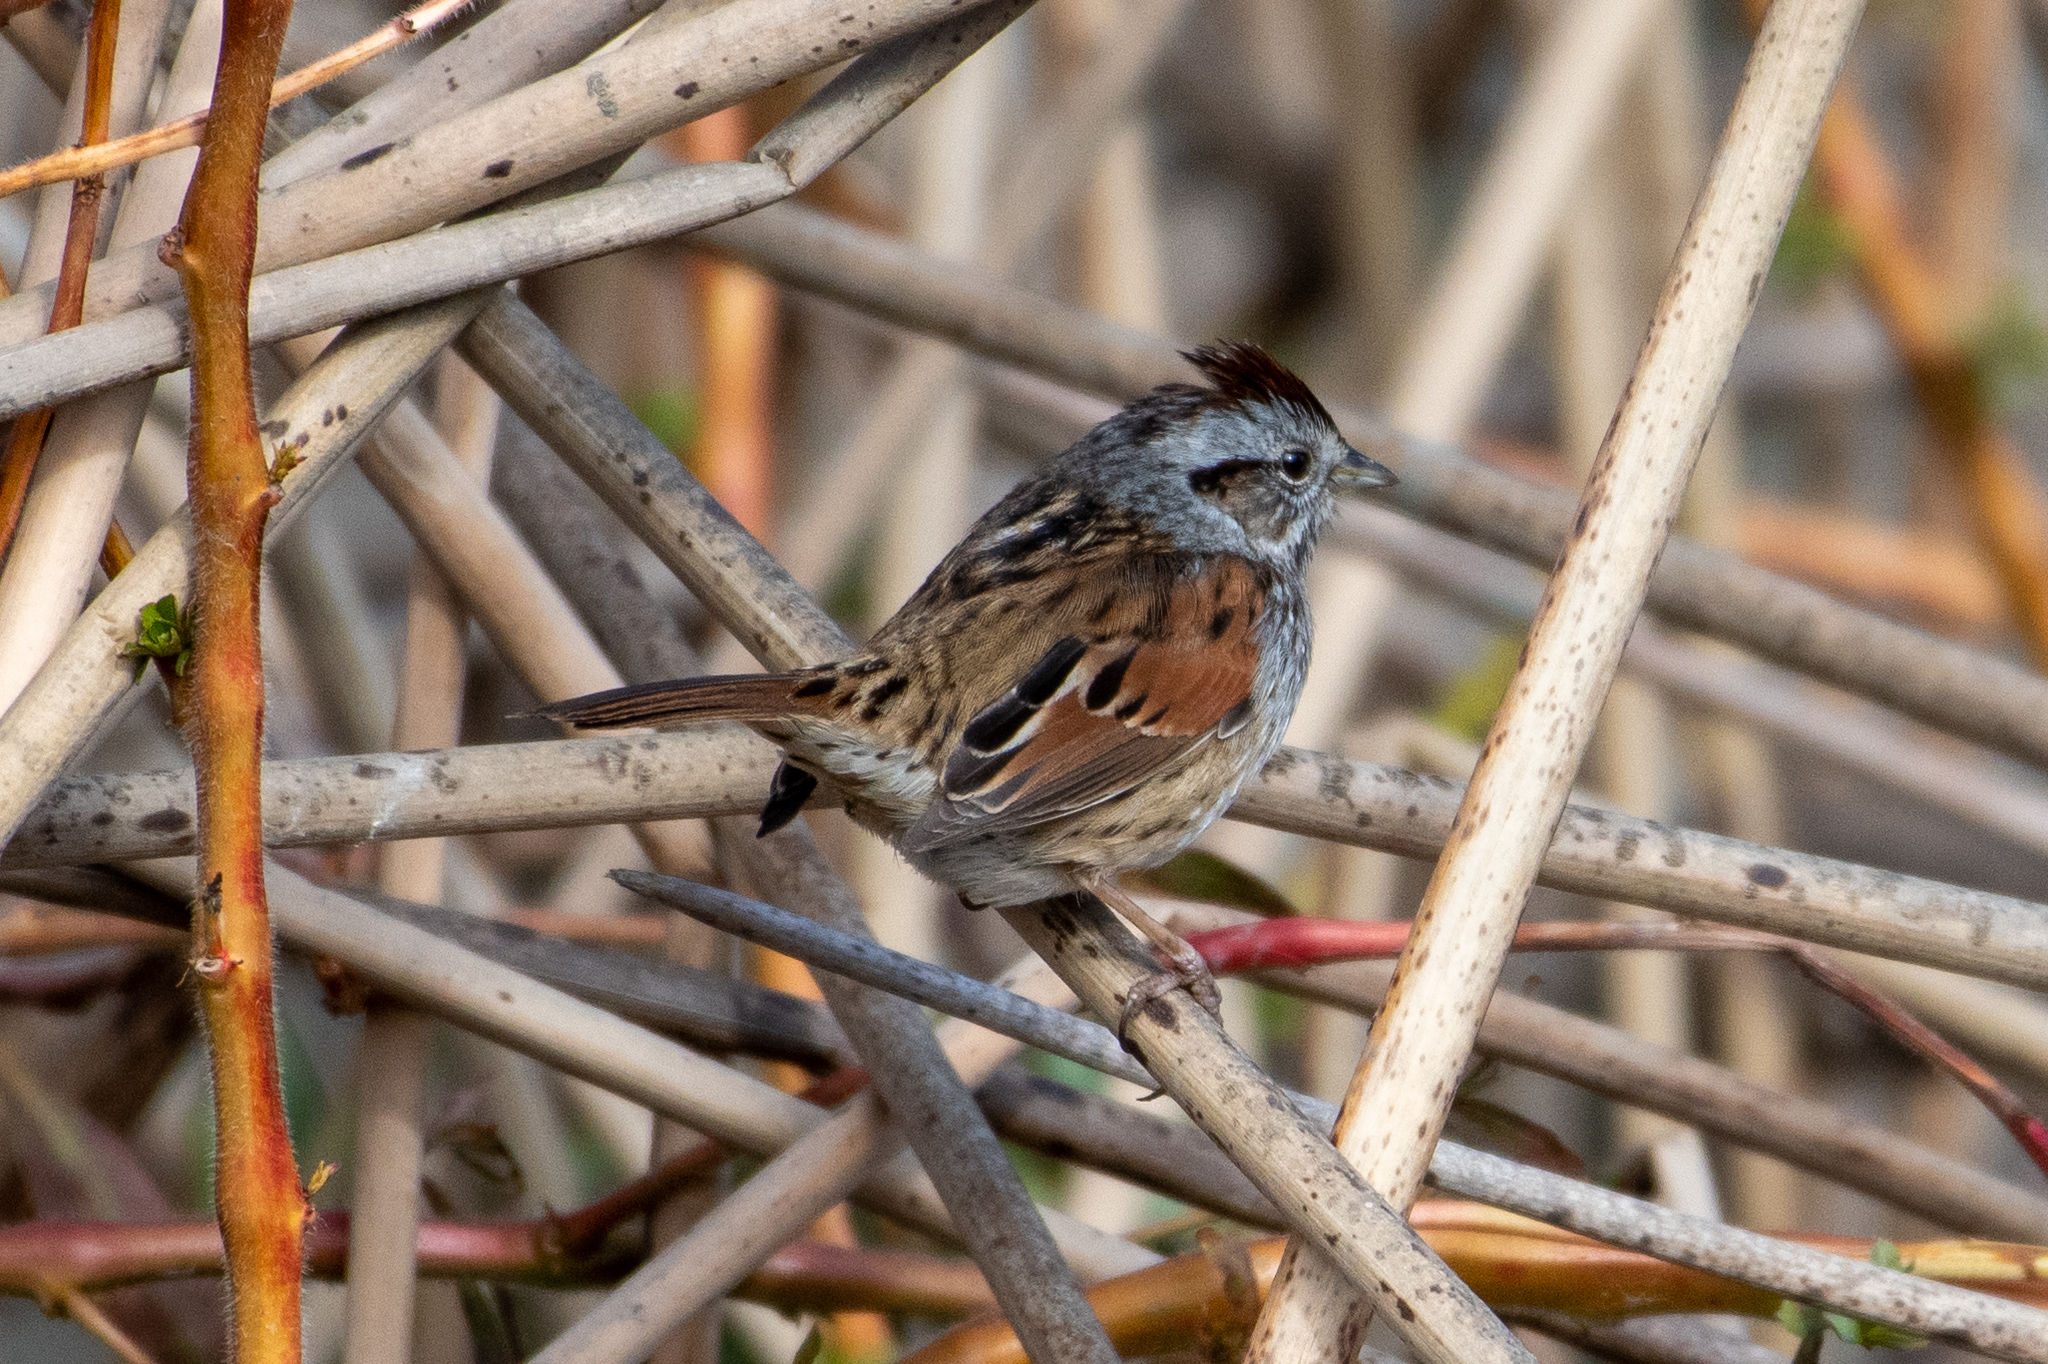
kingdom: Animalia
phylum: Chordata
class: Aves
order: Passeriformes
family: Passerellidae
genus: Melospiza
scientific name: Melospiza georgiana
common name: Swamp sparrow
